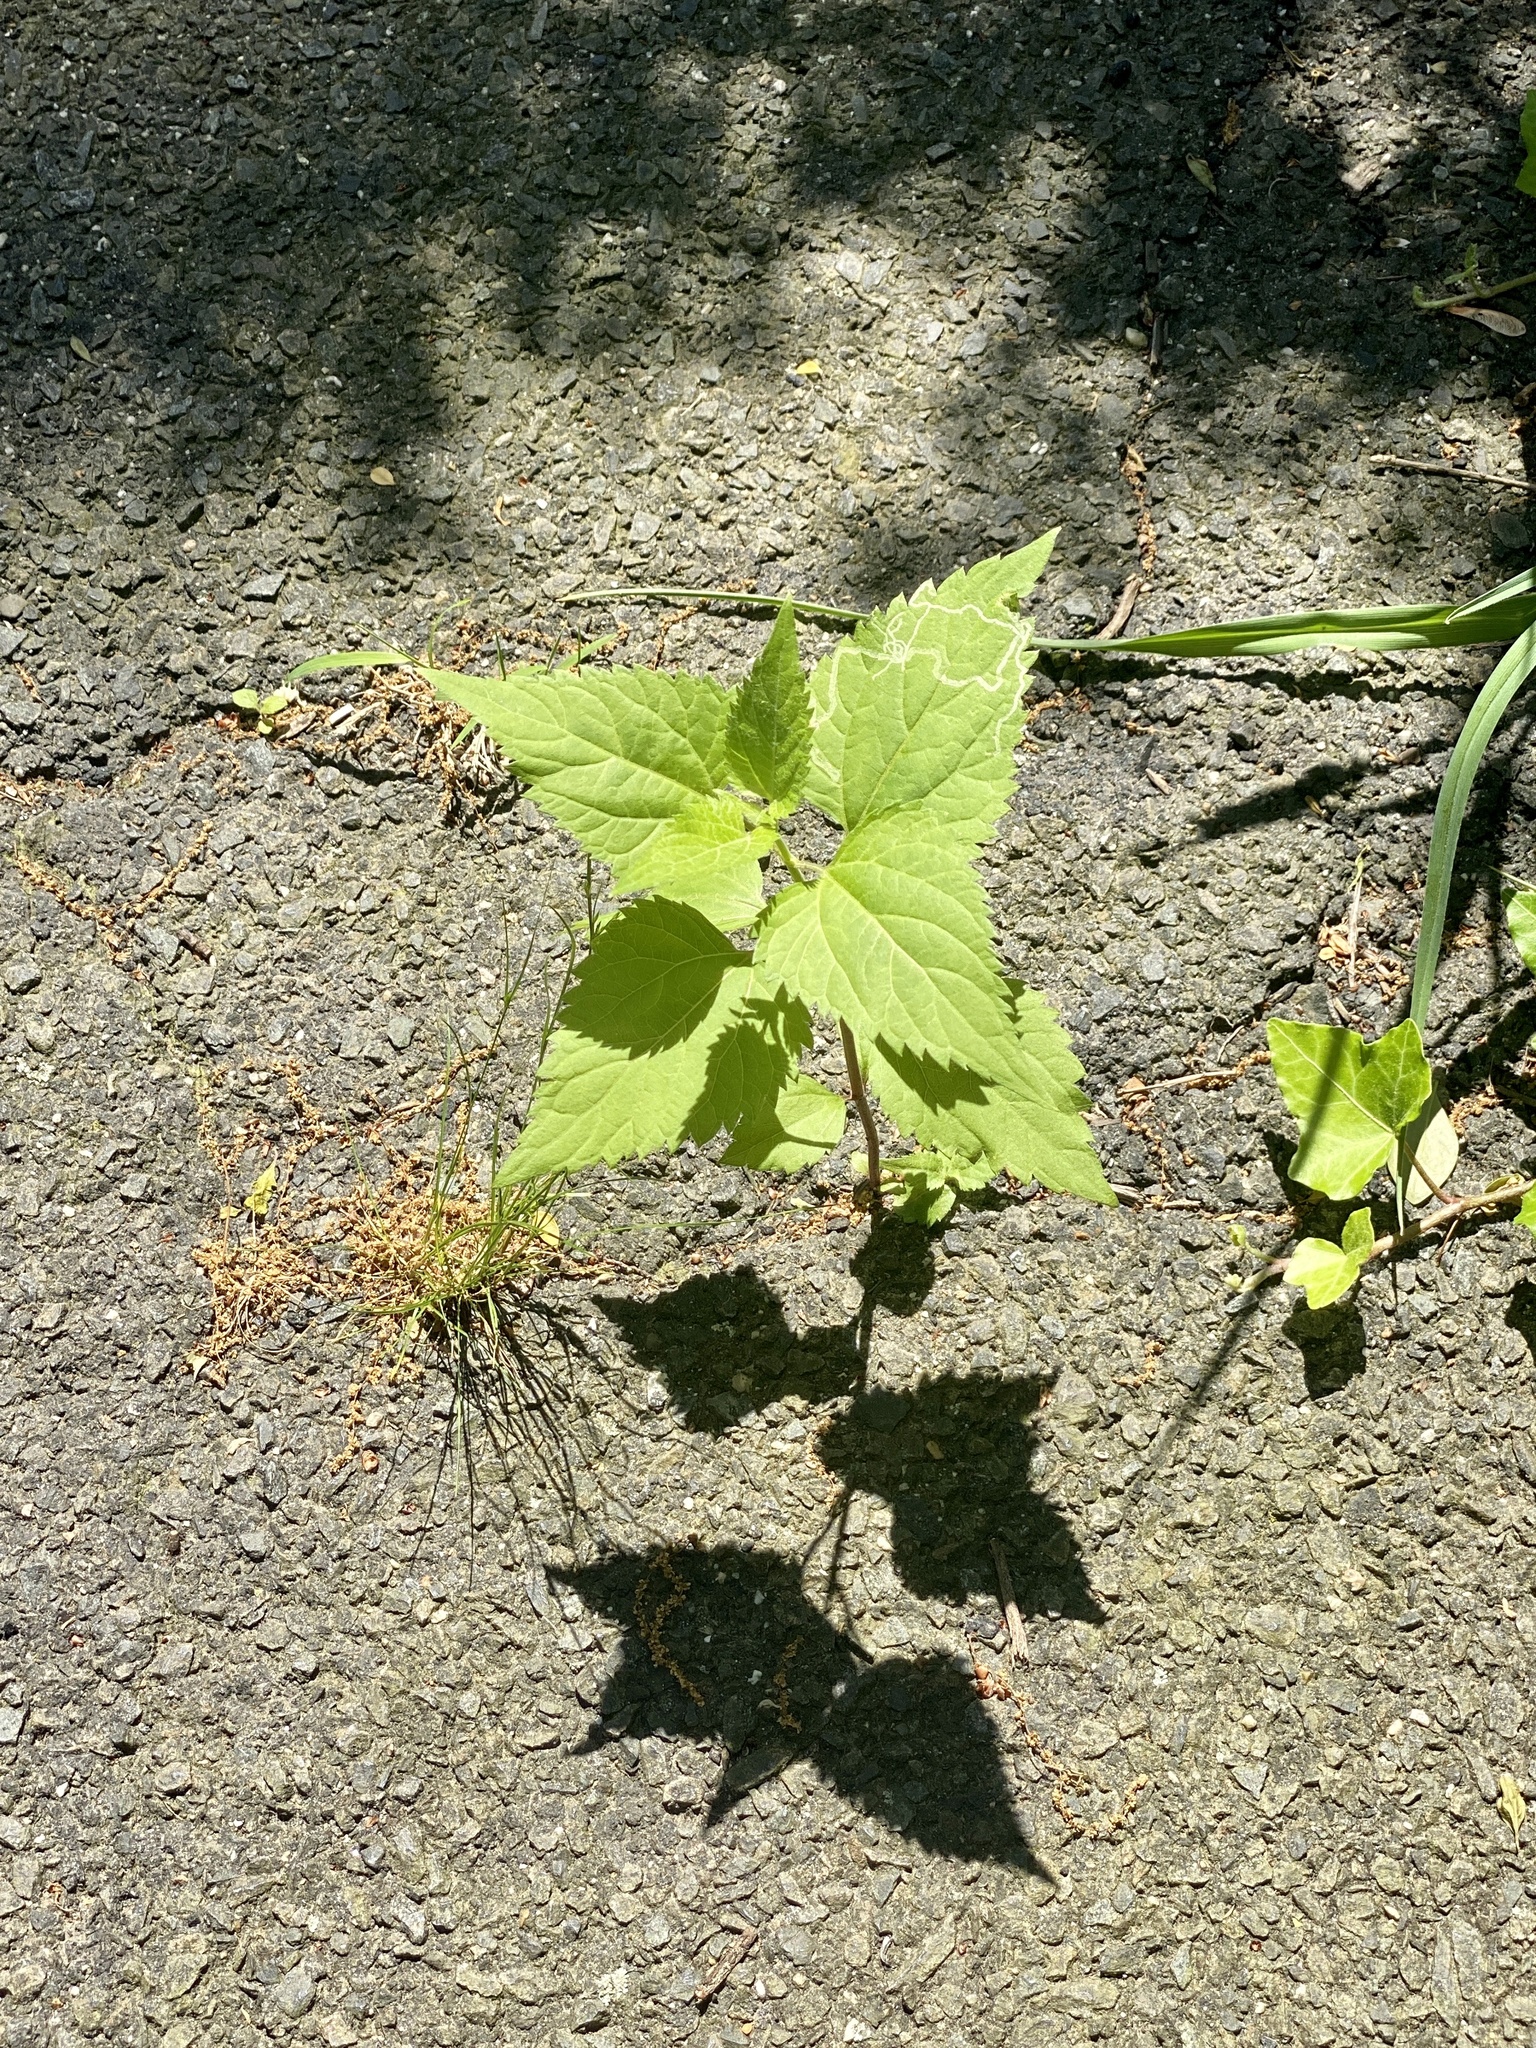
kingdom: Plantae
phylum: Tracheophyta
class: Magnoliopsida
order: Asterales
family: Asteraceae
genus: Ageratina
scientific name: Ageratina altissima
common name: White snakeroot
